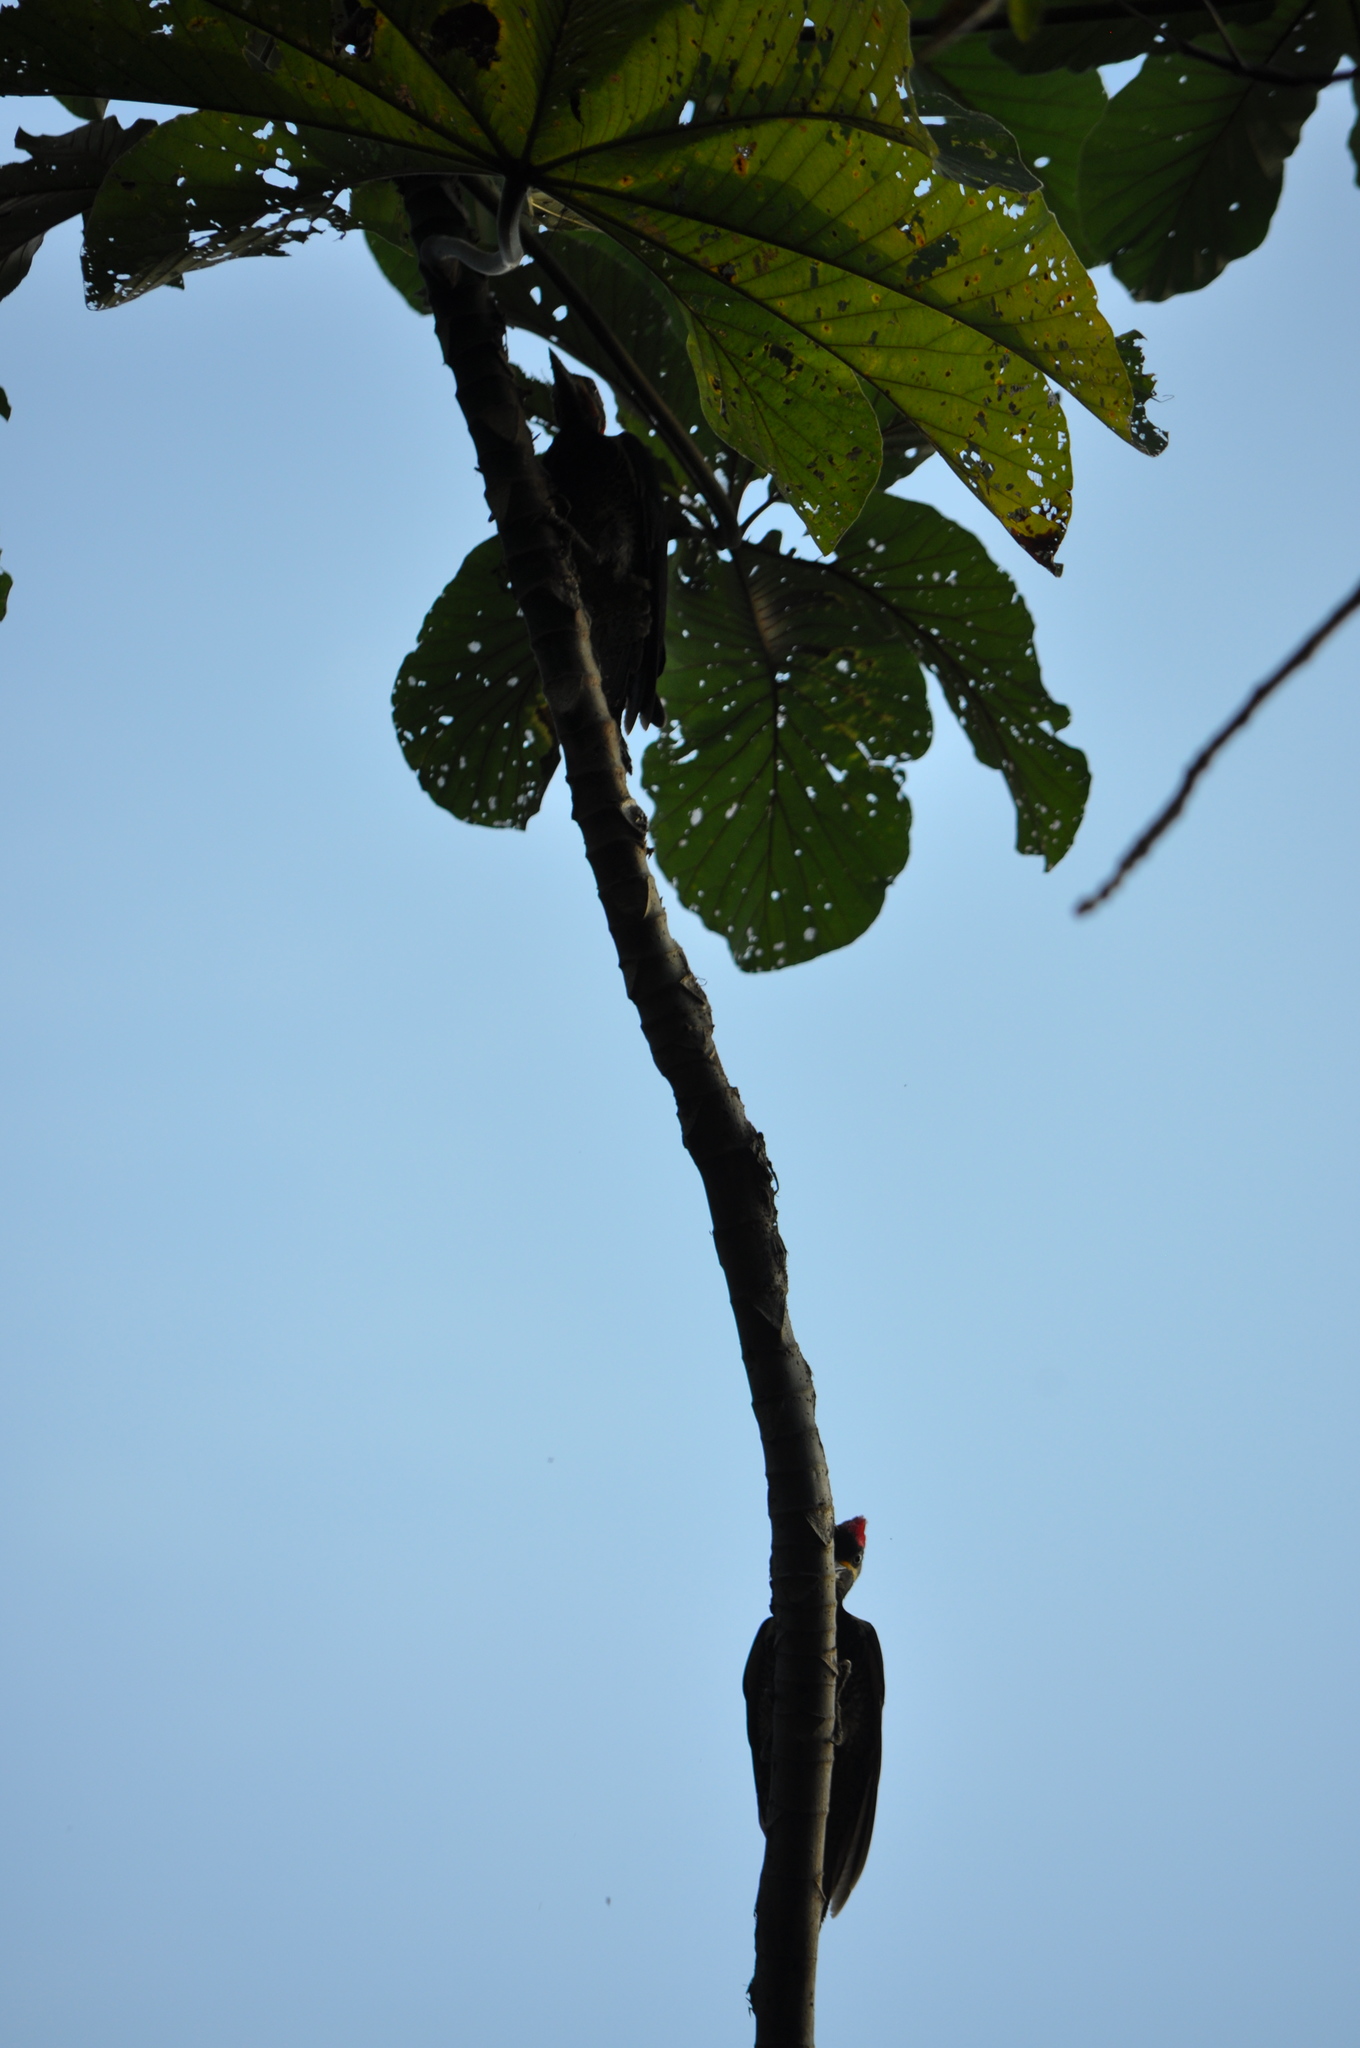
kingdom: Animalia
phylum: Chordata
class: Aves
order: Piciformes
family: Picidae
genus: Dryocopus
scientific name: Dryocopus lineatus
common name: Lineated woodpecker
